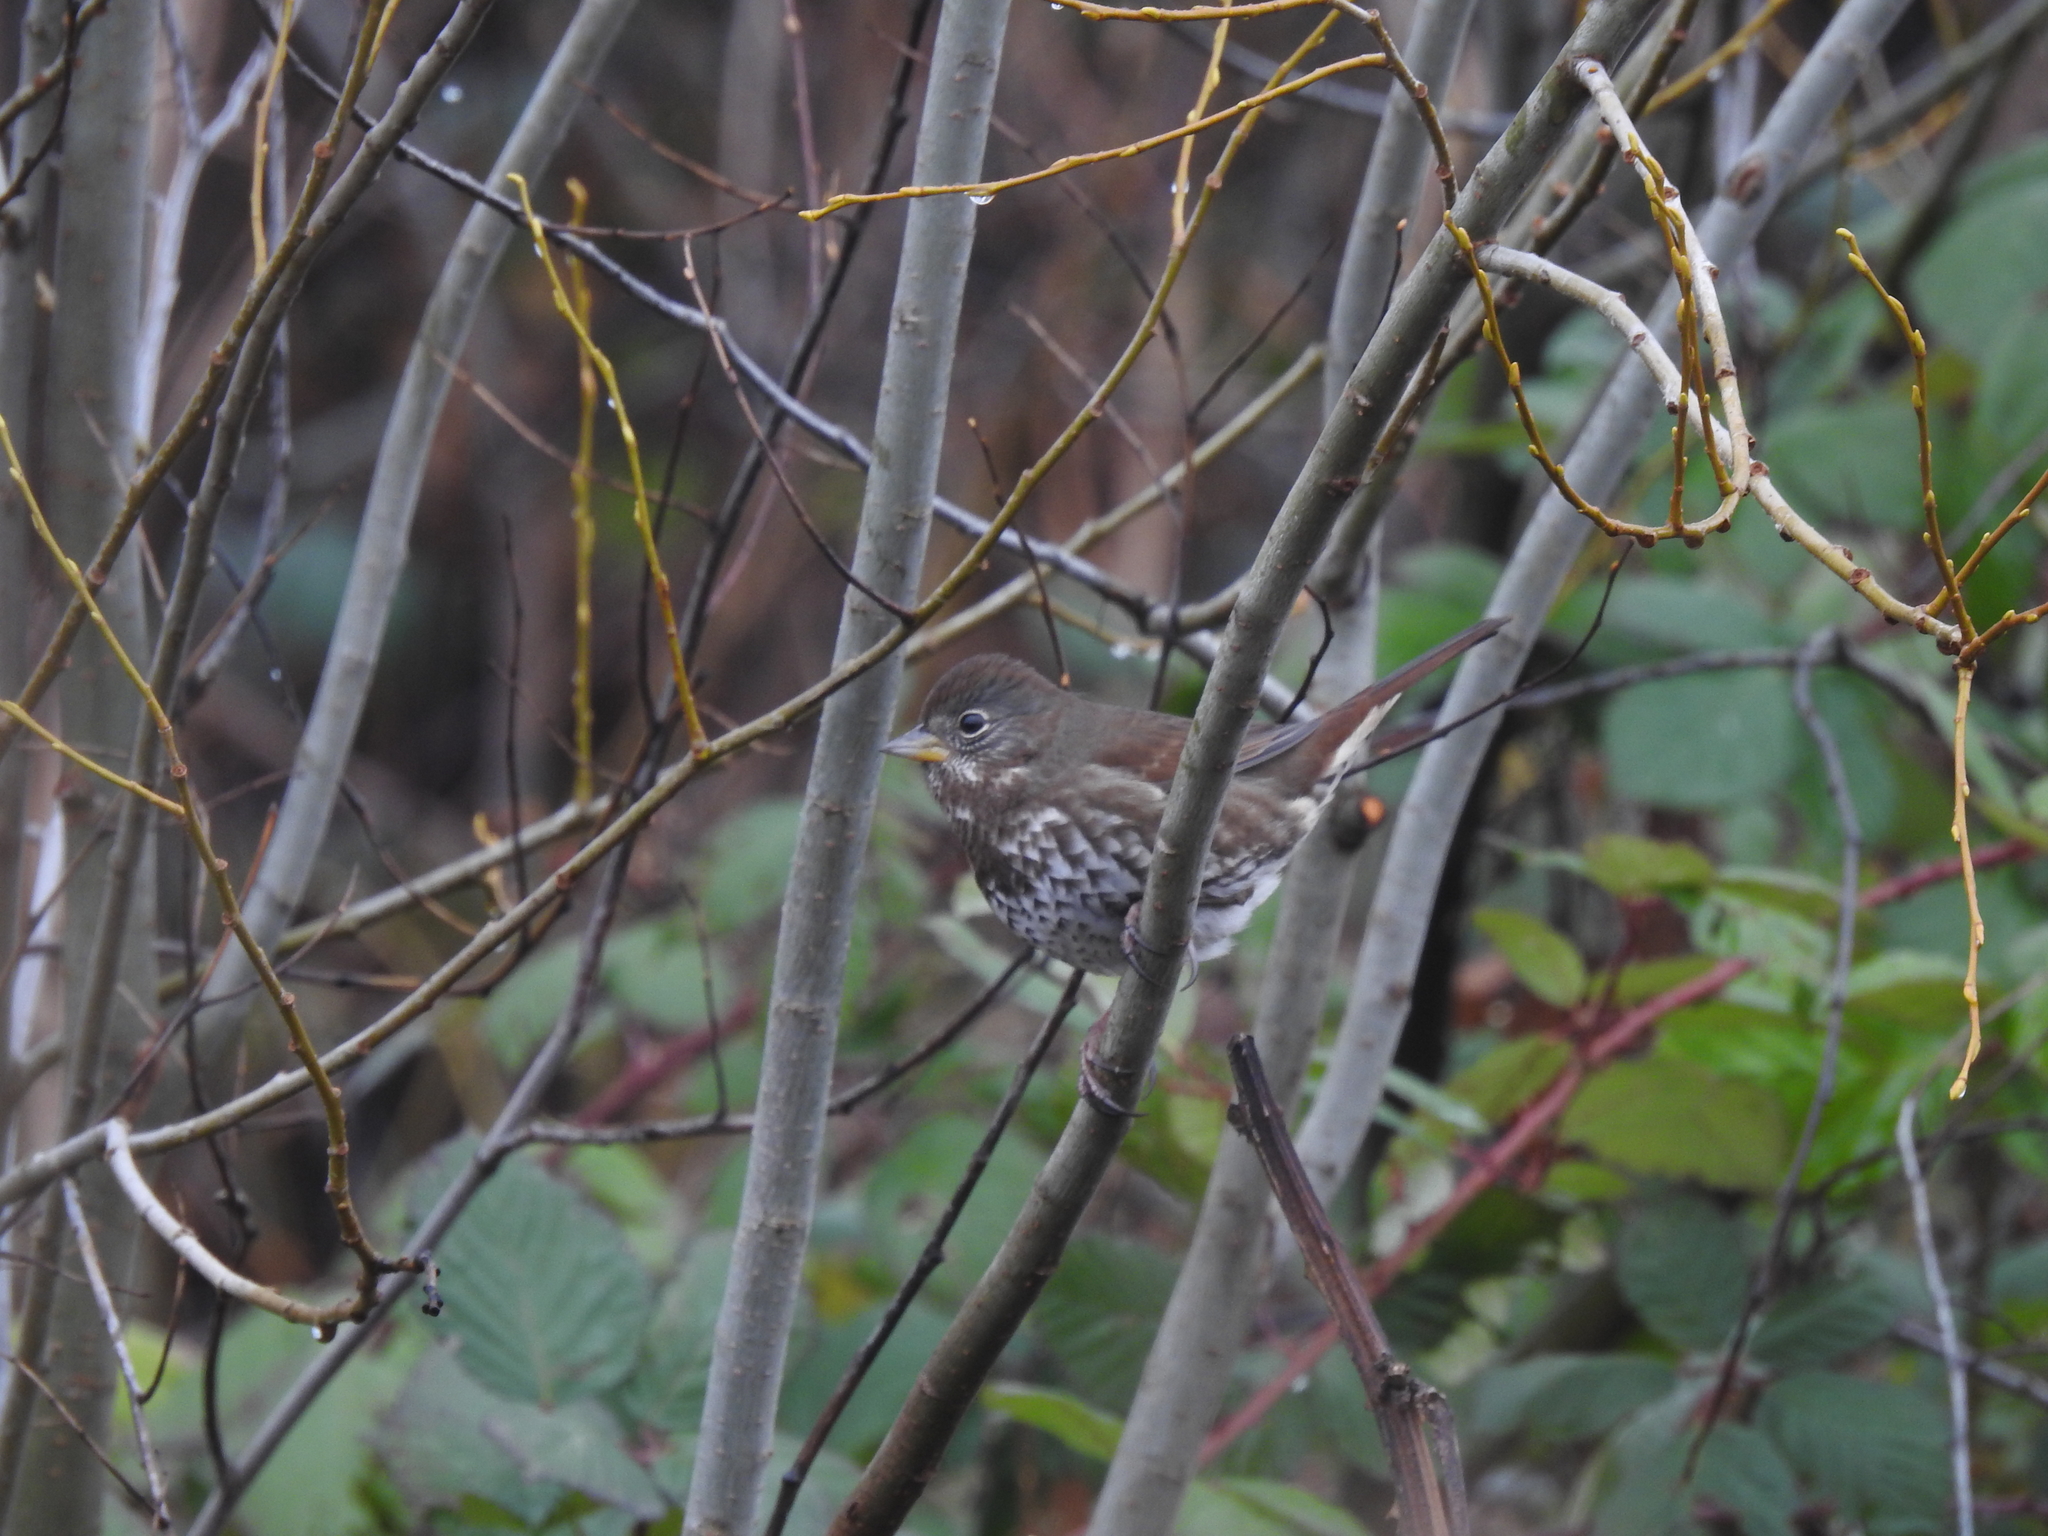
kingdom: Animalia
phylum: Chordata
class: Aves
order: Passeriformes
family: Passerellidae
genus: Passerella
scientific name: Passerella iliaca
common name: Fox sparrow
